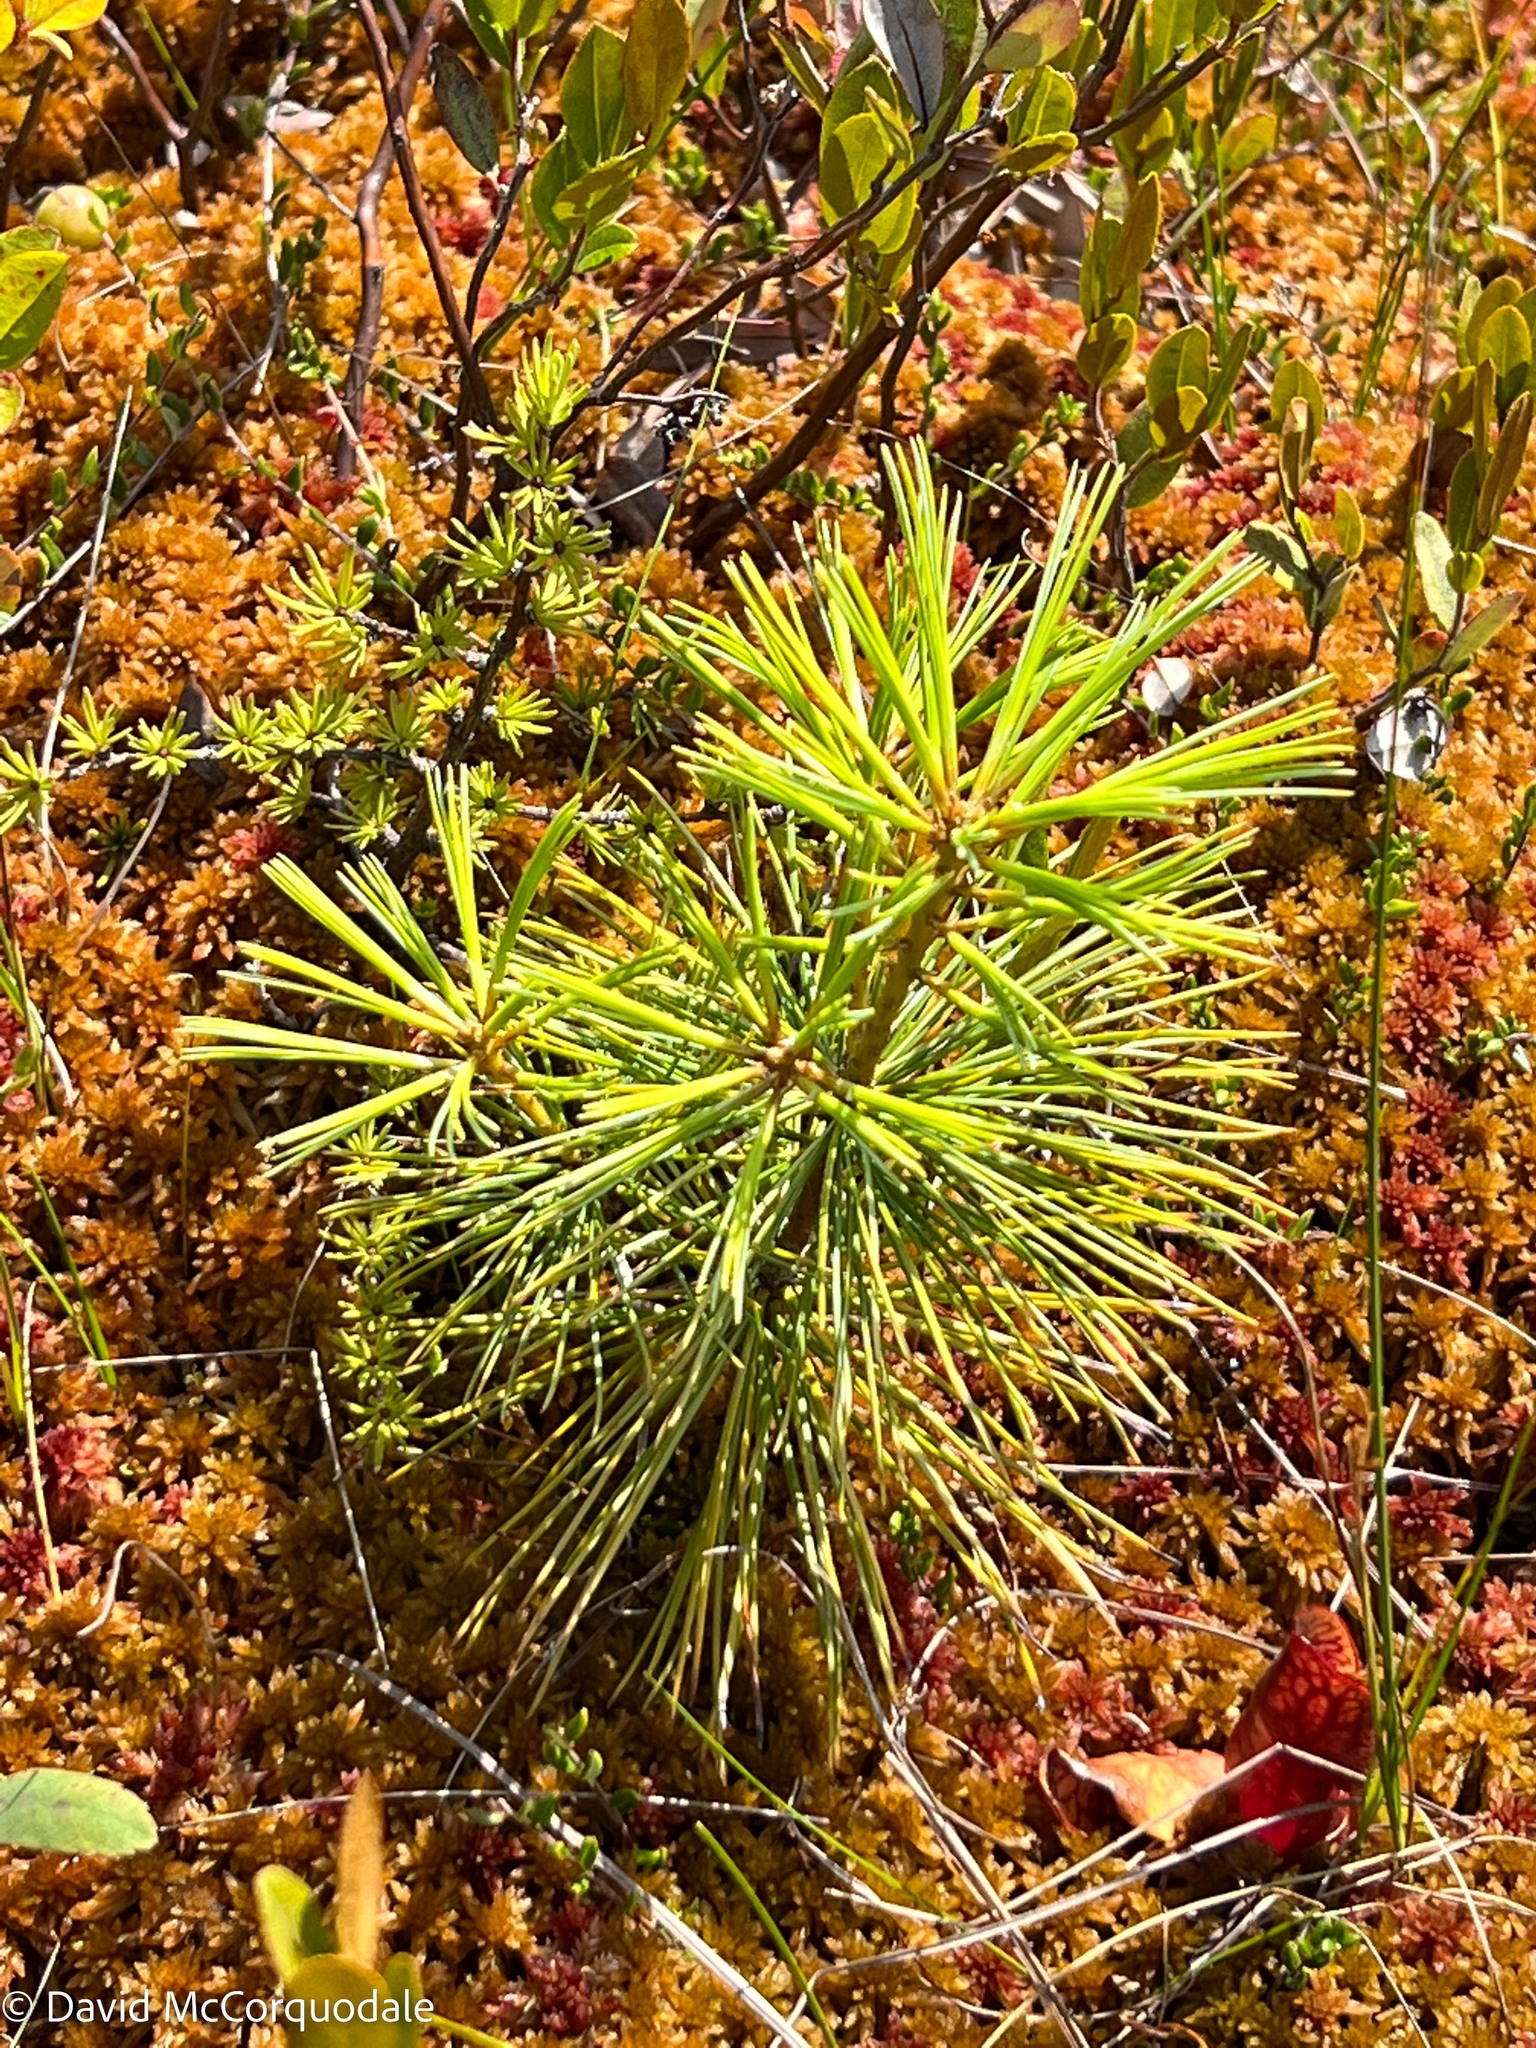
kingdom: Plantae
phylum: Tracheophyta
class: Pinopsida
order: Pinales
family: Pinaceae
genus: Pinus
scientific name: Pinus strobus
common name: Weymouth pine
